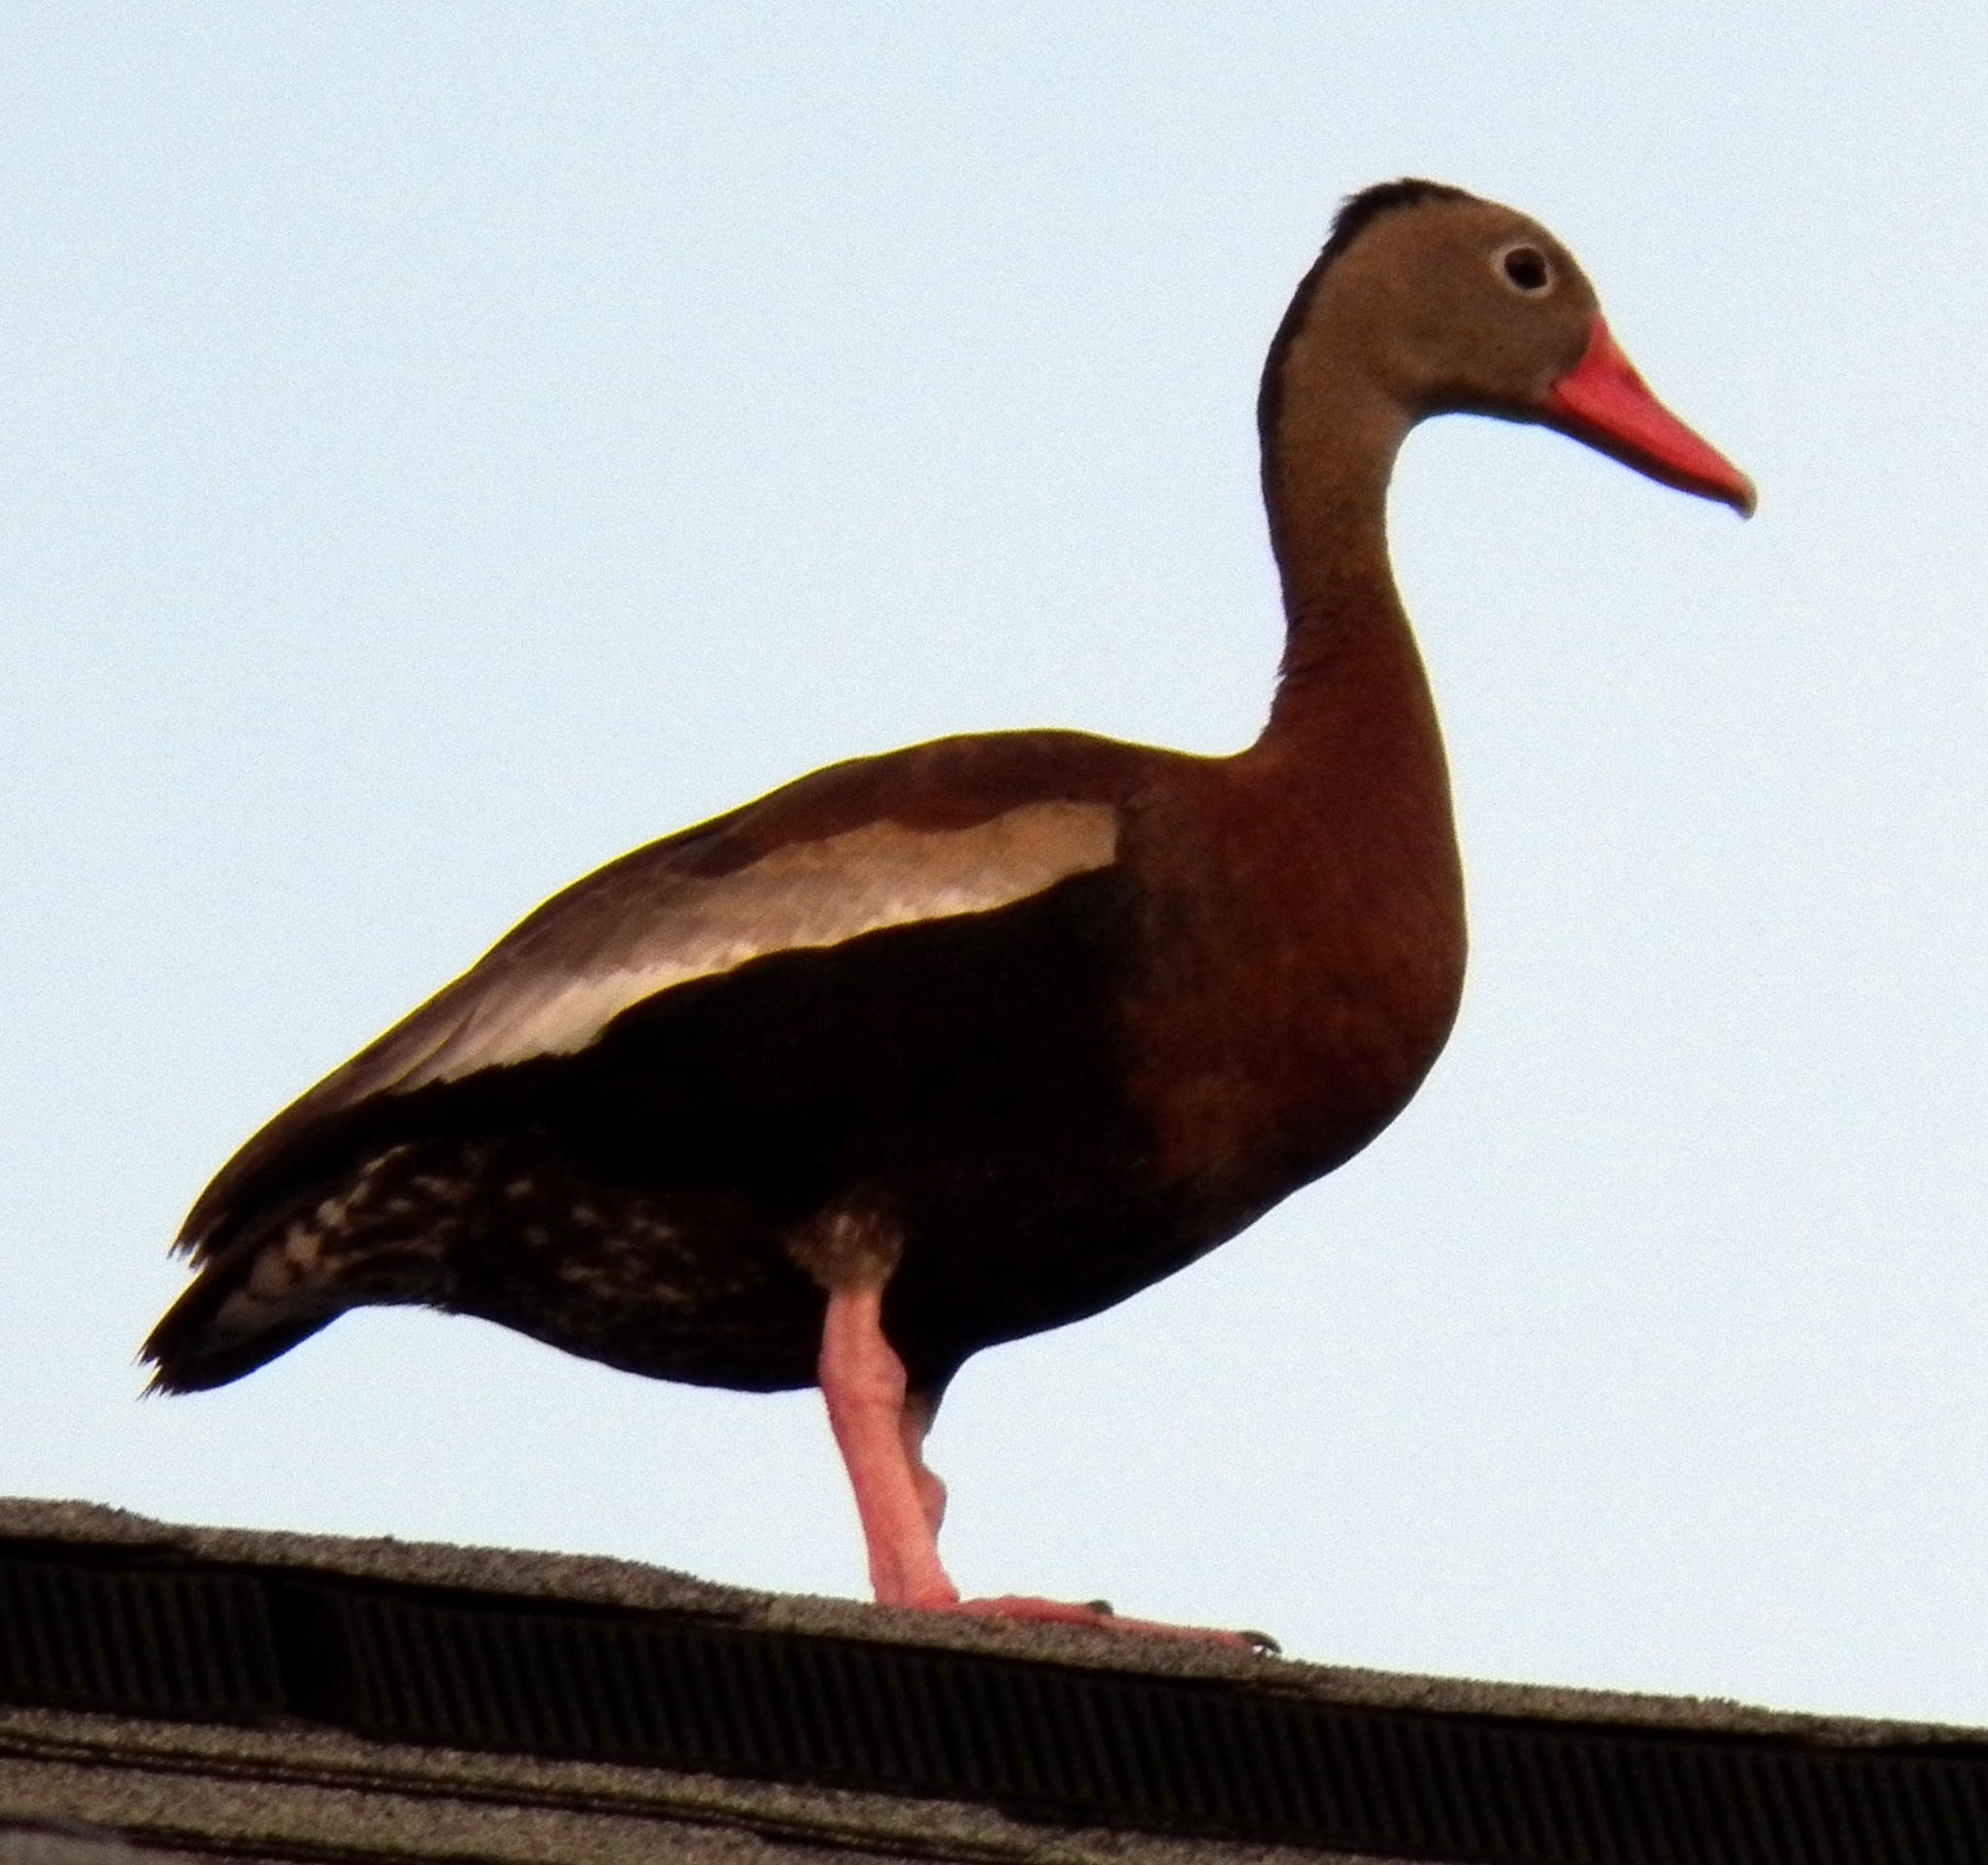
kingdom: Animalia
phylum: Chordata
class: Aves
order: Anseriformes
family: Anatidae
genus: Dendrocygna
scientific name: Dendrocygna autumnalis
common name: Black-bellied whistling duck
